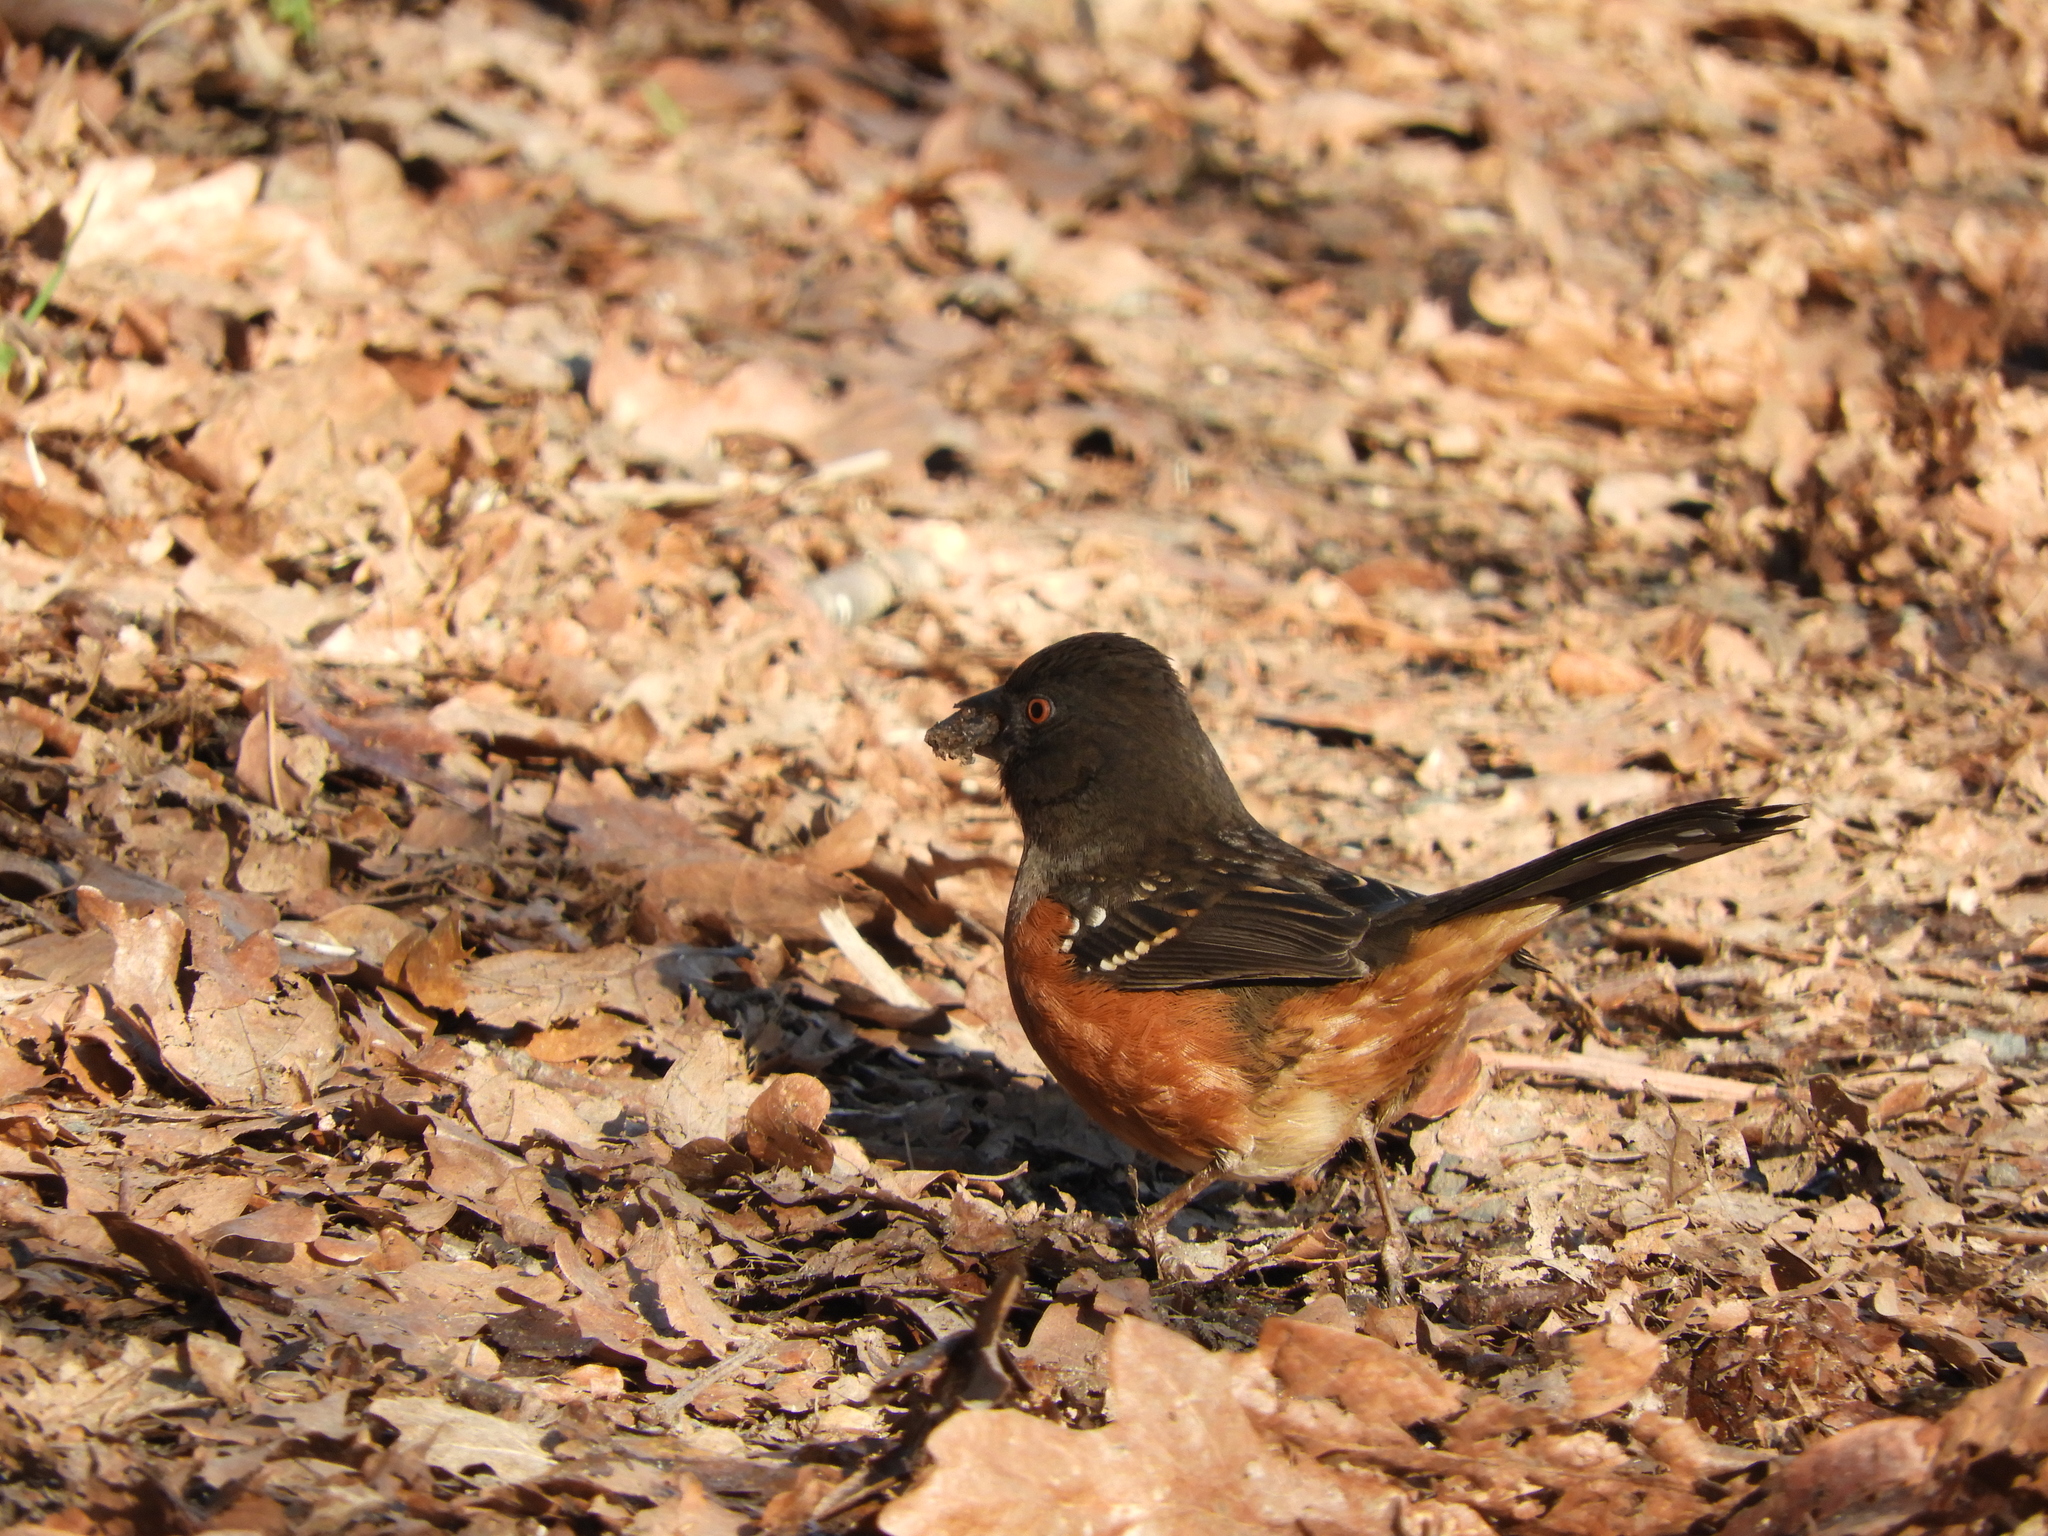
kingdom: Animalia
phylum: Chordata
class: Aves
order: Passeriformes
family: Passerellidae
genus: Pipilo
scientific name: Pipilo maculatus
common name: Spotted towhee
